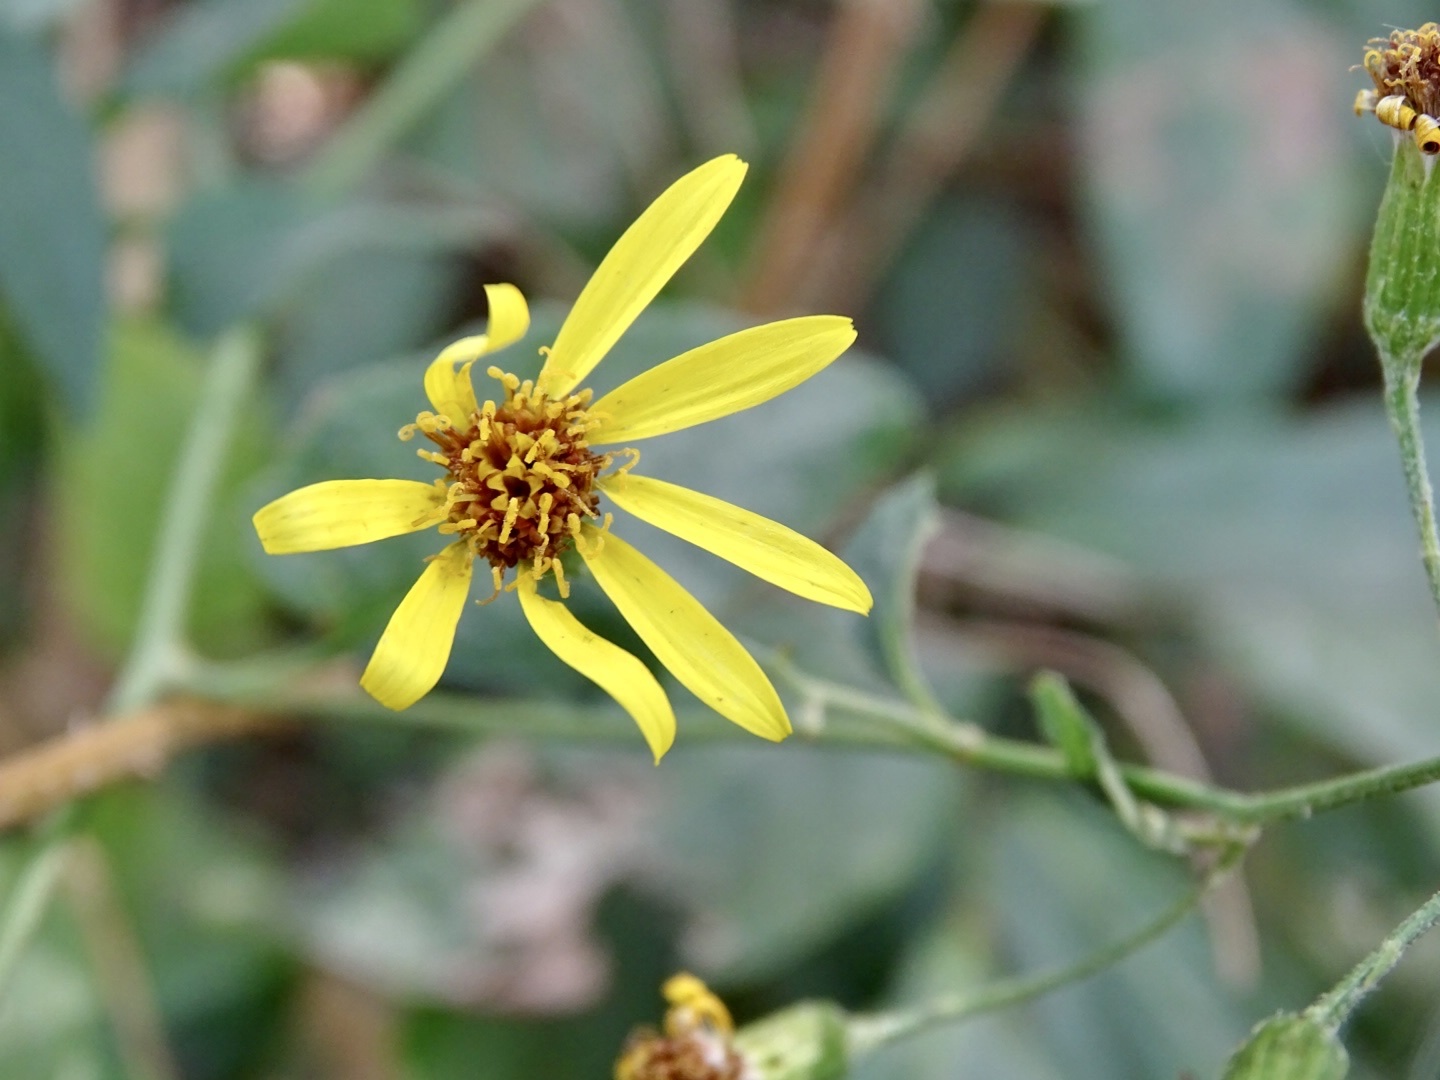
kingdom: Plantae
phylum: Tracheophyta
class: Magnoliopsida
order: Asterales
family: Asteraceae
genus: Senecio
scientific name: Senecio scandens
